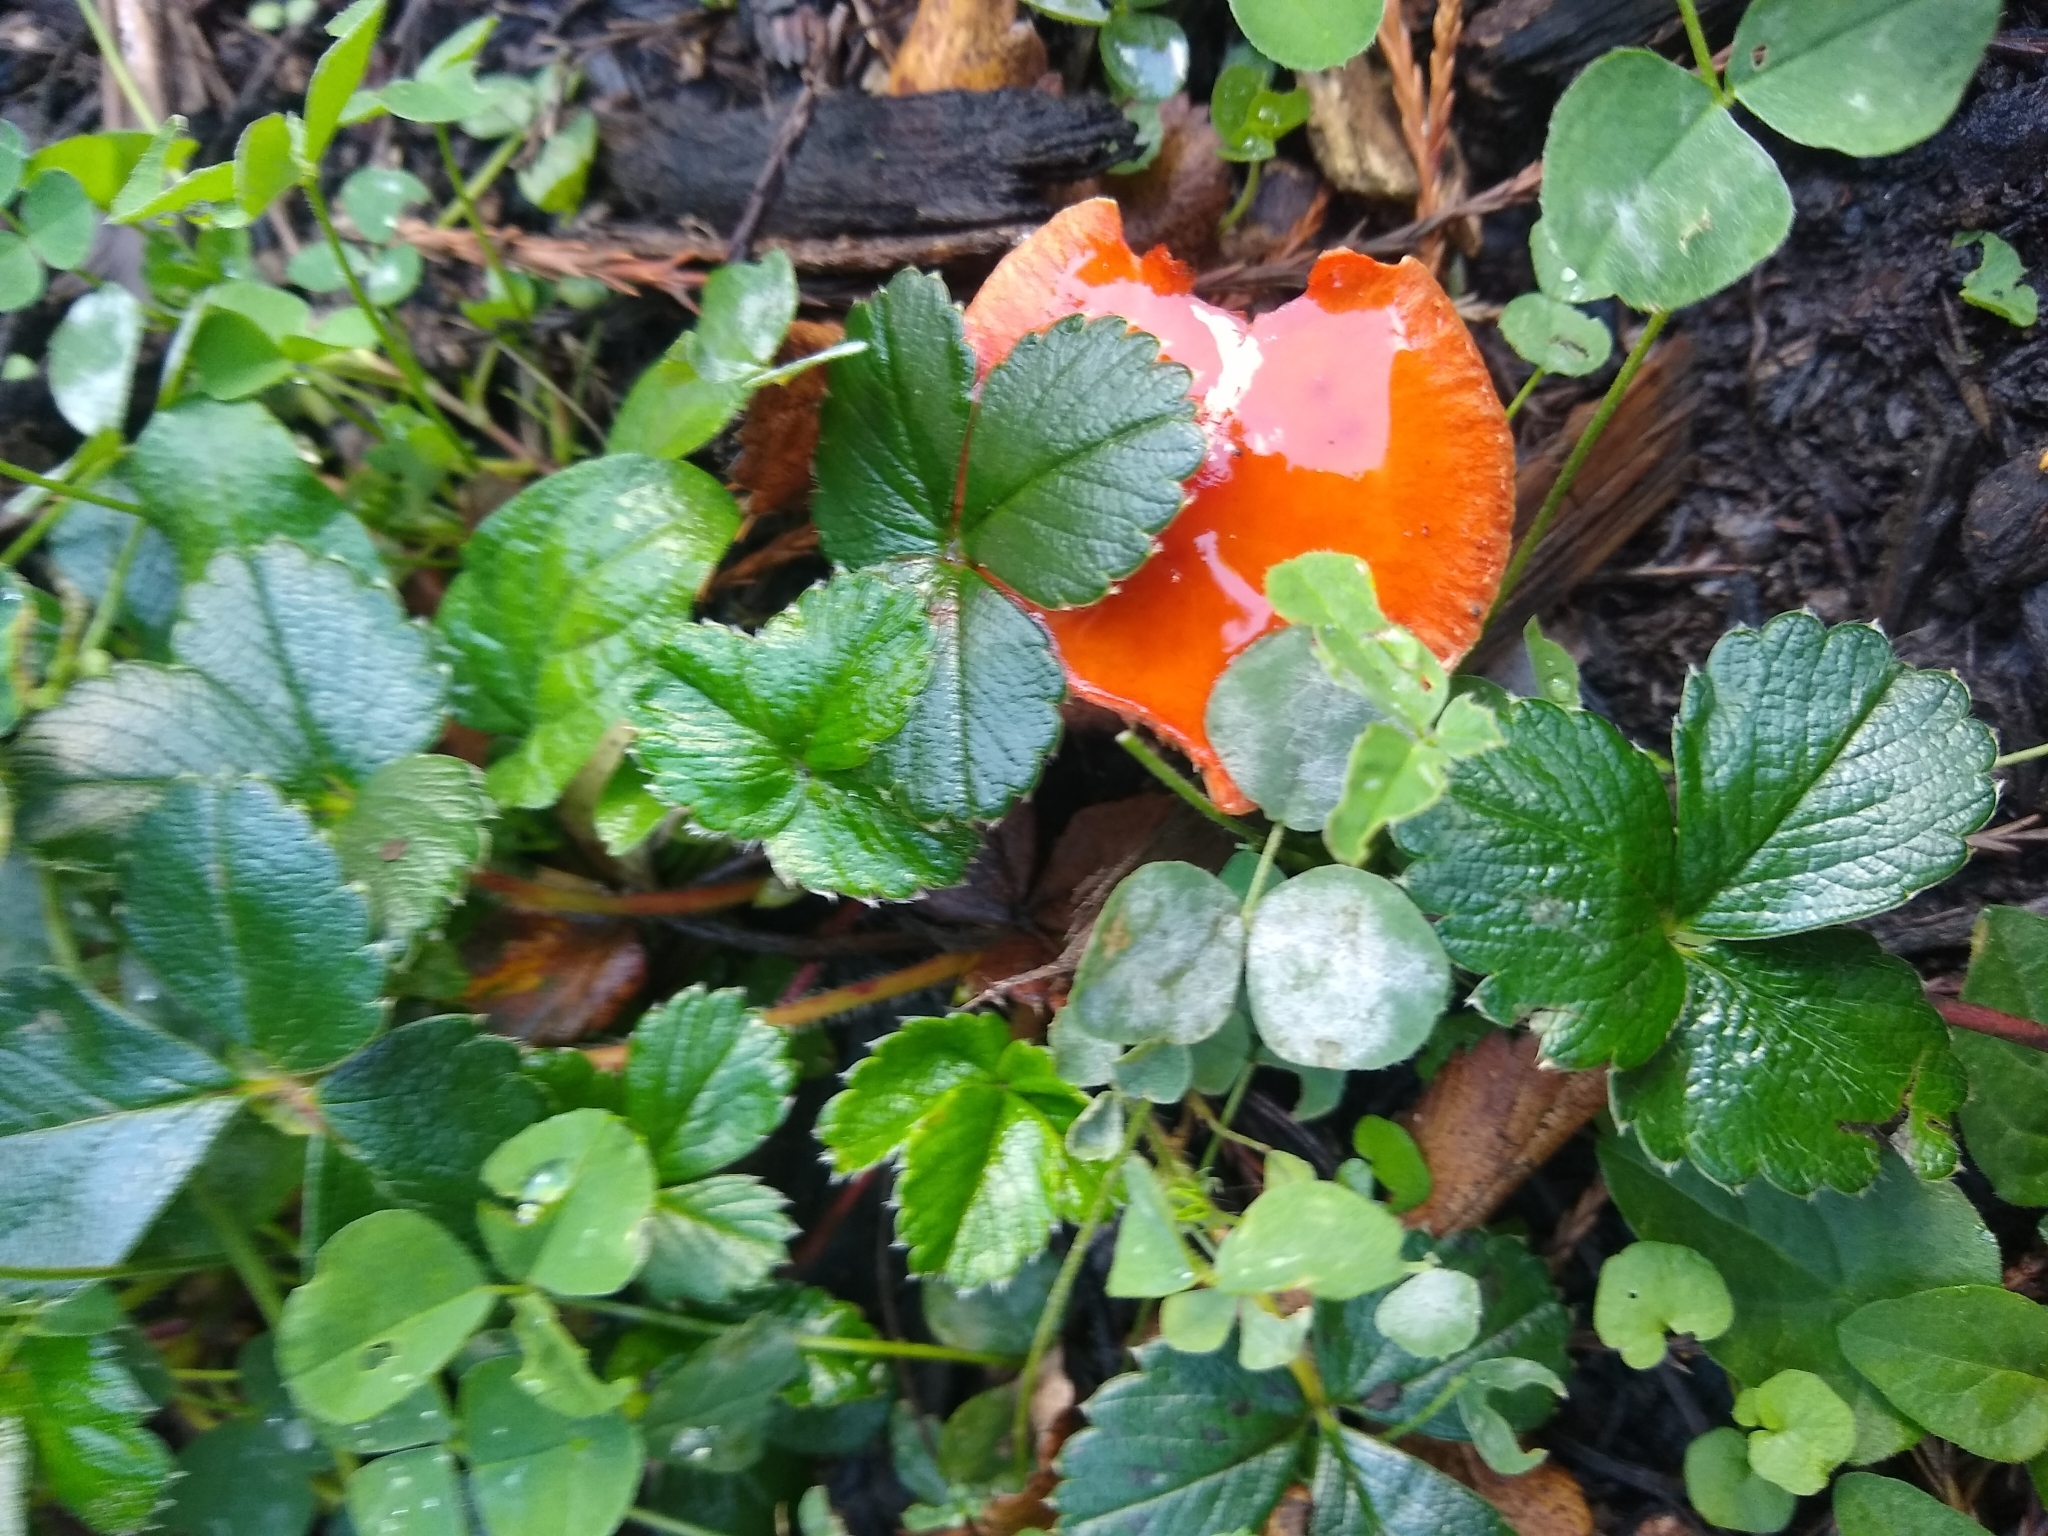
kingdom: Fungi
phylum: Basidiomycota
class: Agaricomycetes
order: Agaricales
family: Strophariaceae
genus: Leratiomyces
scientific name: Leratiomyces ceres
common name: Redlead roundhead
